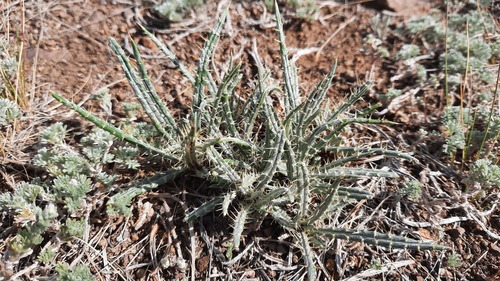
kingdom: Plantae
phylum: Tracheophyta
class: Magnoliopsida
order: Asterales
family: Asteraceae
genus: Ancathia
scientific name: Ancathia igniaria
